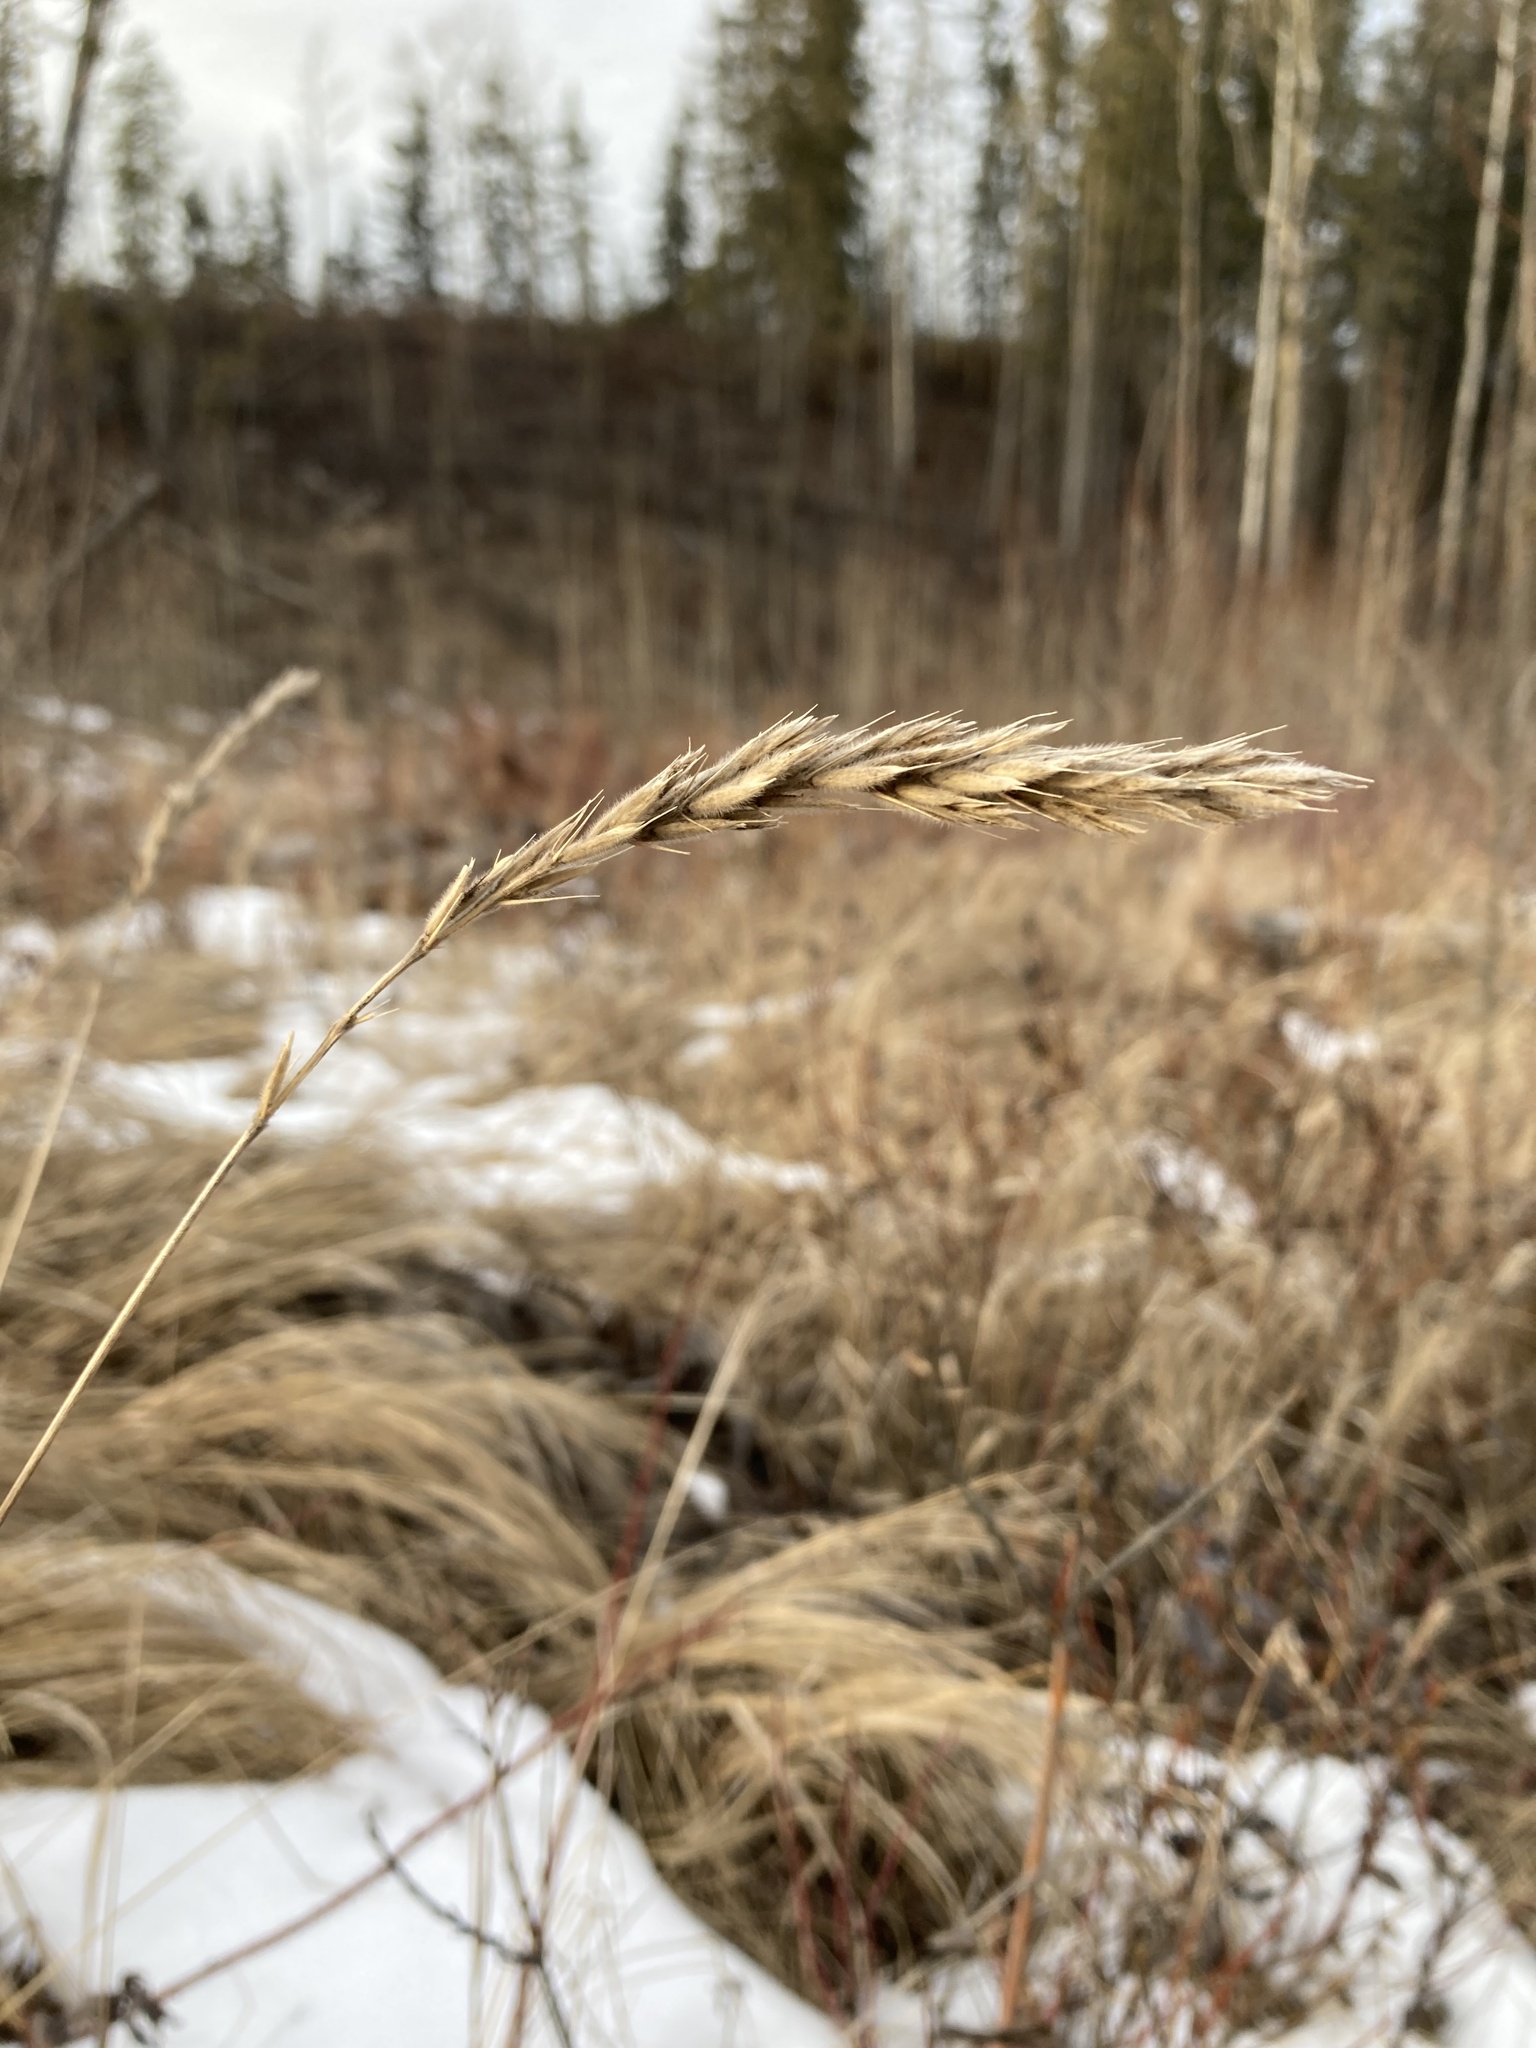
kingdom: Plantae
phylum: Tracheophyta
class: Liliopsida
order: Poales
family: Poaceae
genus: Leymus
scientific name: Leymus innovatus
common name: Boreal wild rye
